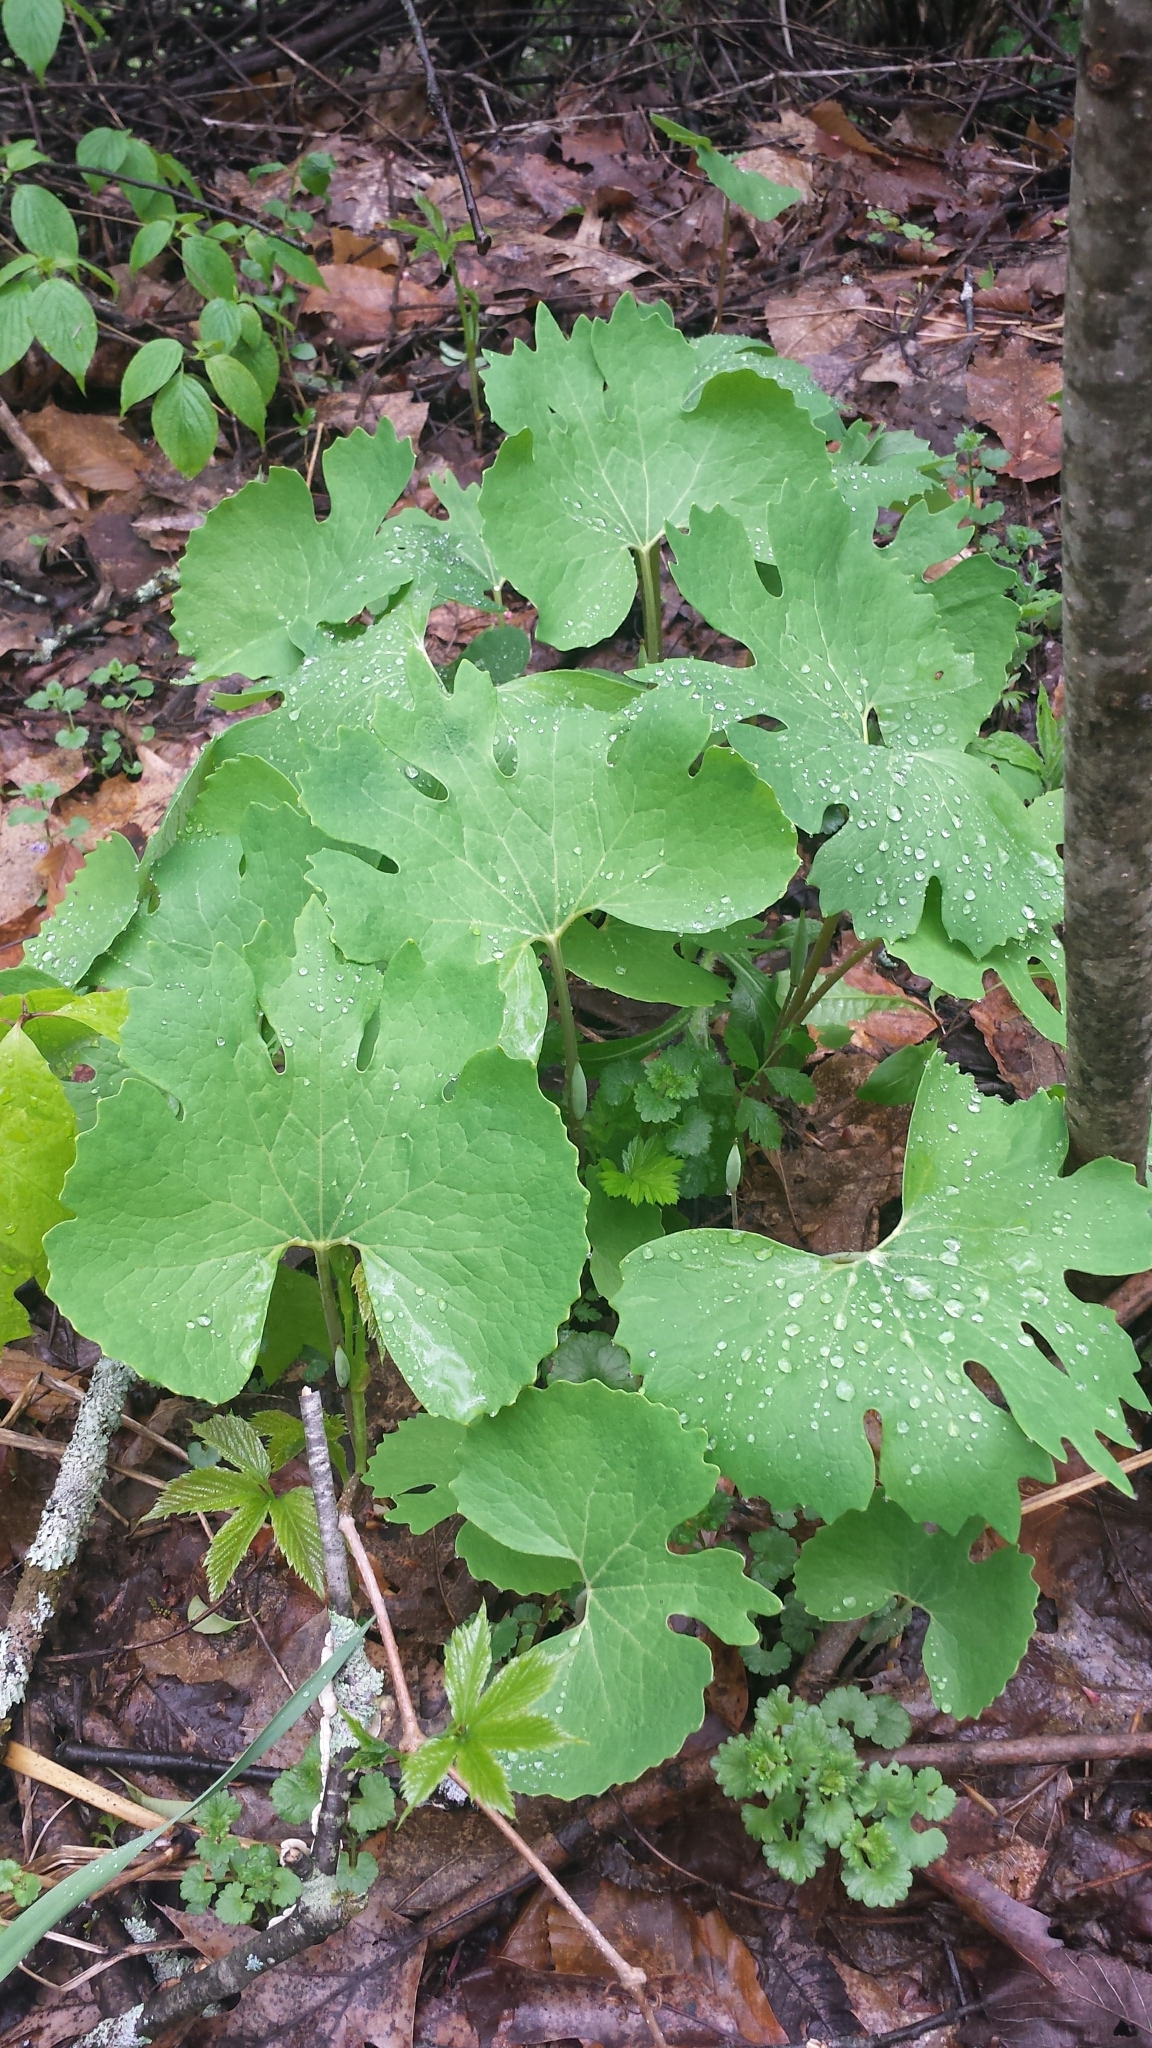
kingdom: Plantae
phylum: Tracheophyta
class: Magnoliopsida
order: Ranunculales
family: Papaveraceae
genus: Sanguinaria
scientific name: Sanguinaria canadensis
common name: Bloodroot
